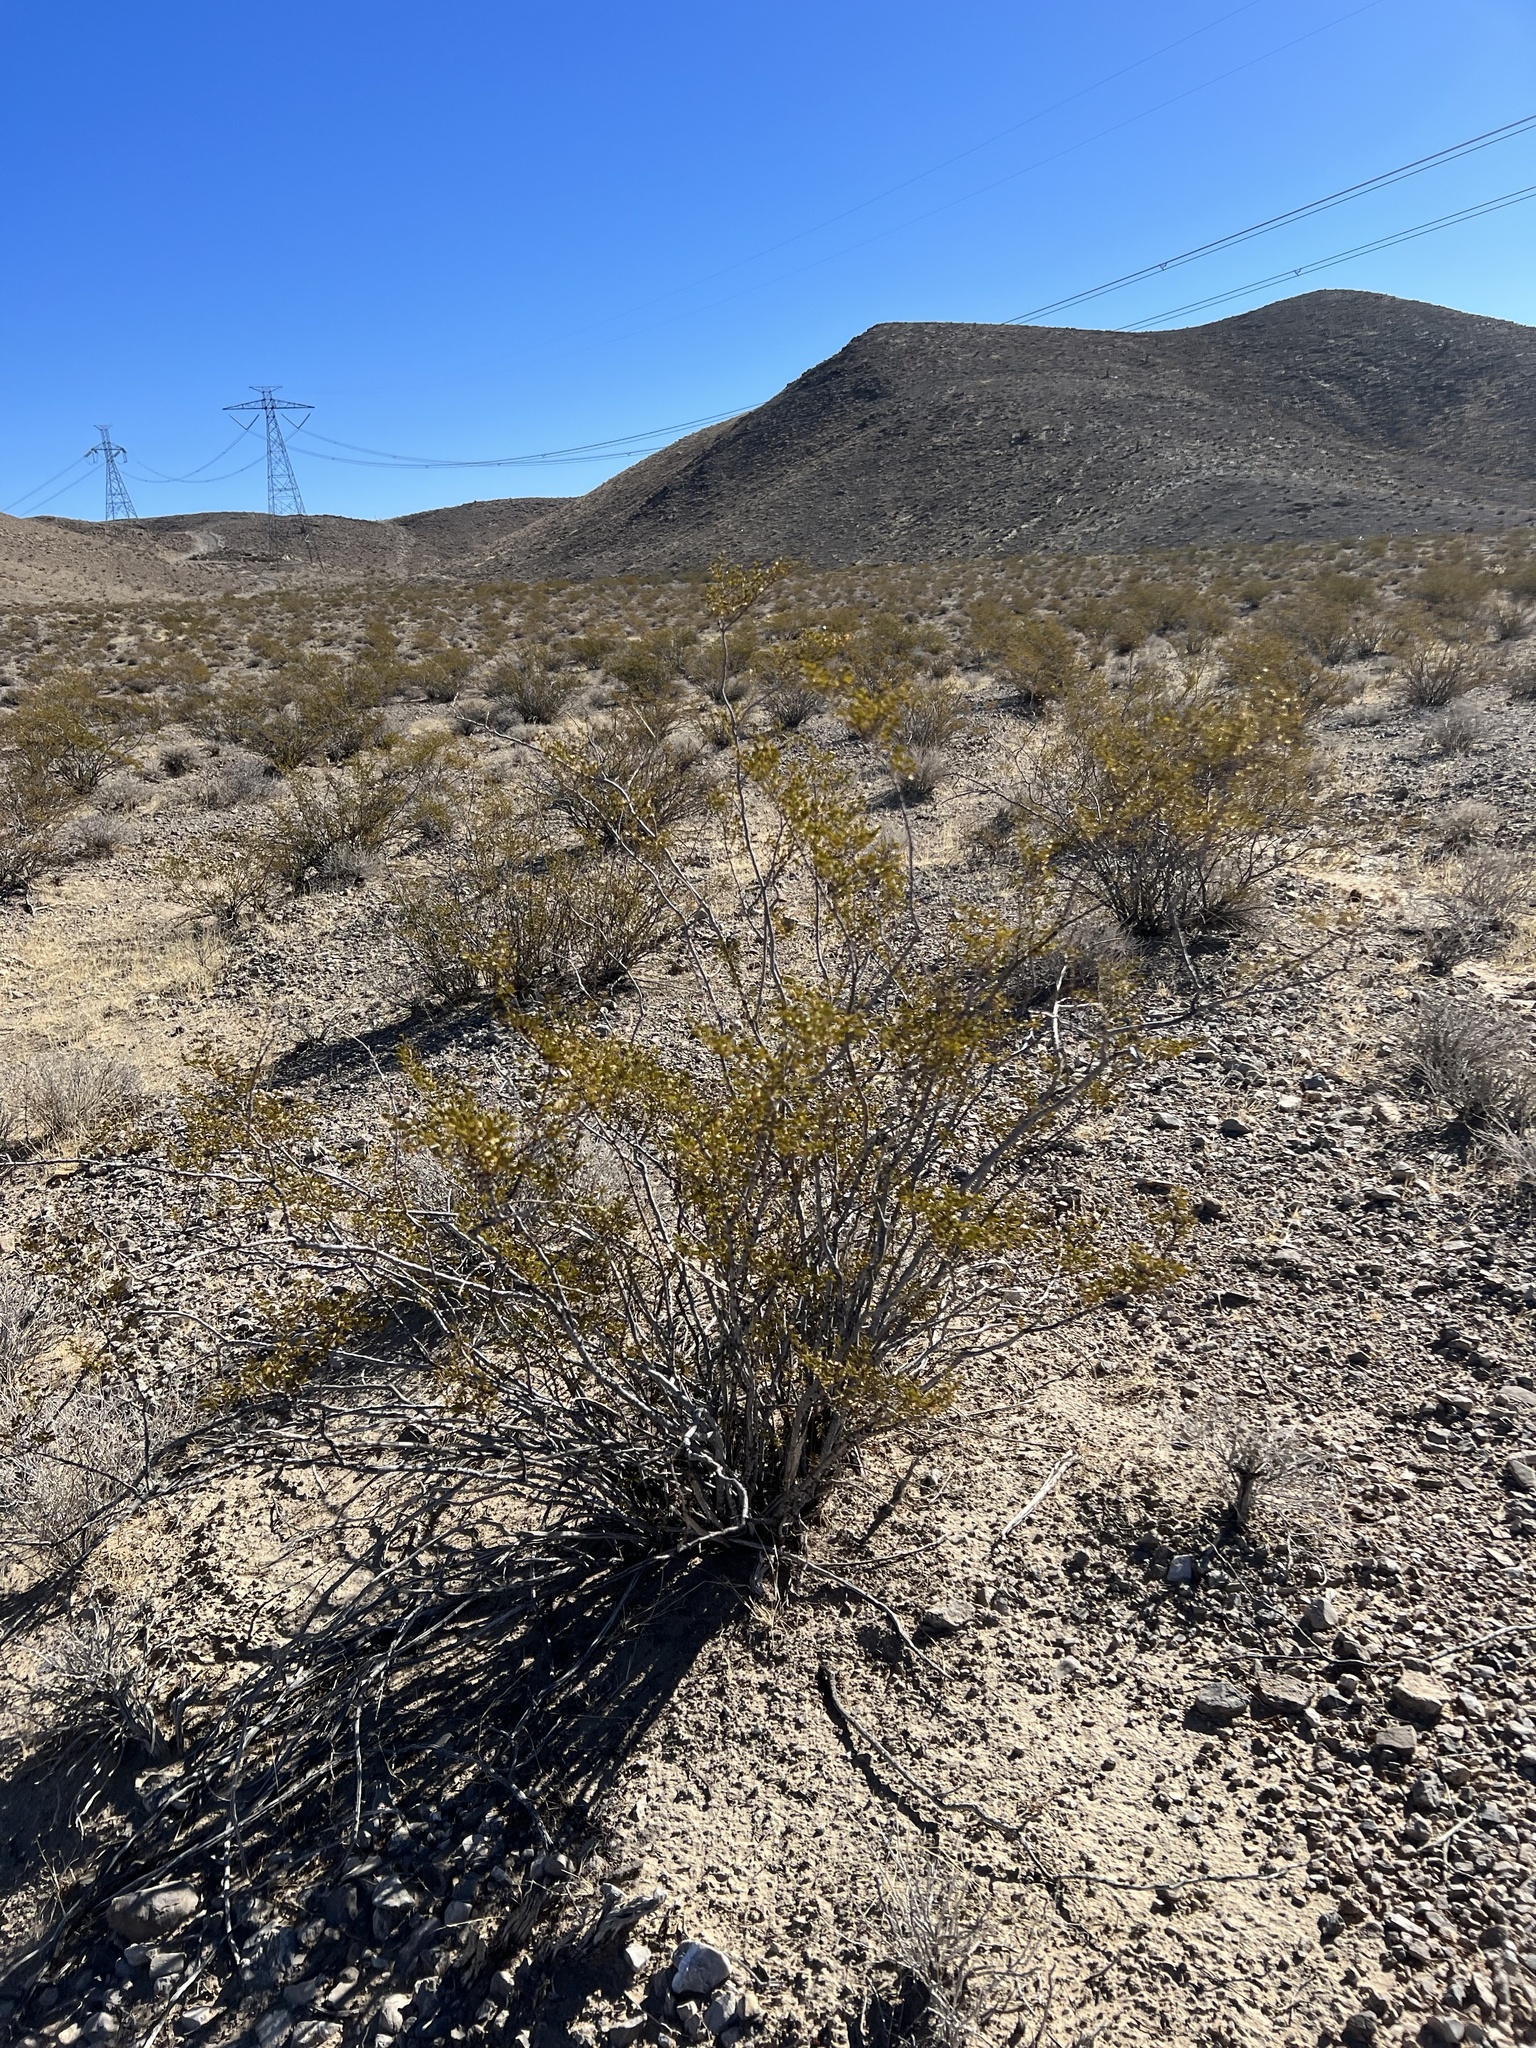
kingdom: Plantae
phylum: Tracheophyta
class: Magnoliopsida
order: Zygophyllales
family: Zygophyllaceae
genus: Larrea
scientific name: Larrea tridentata
